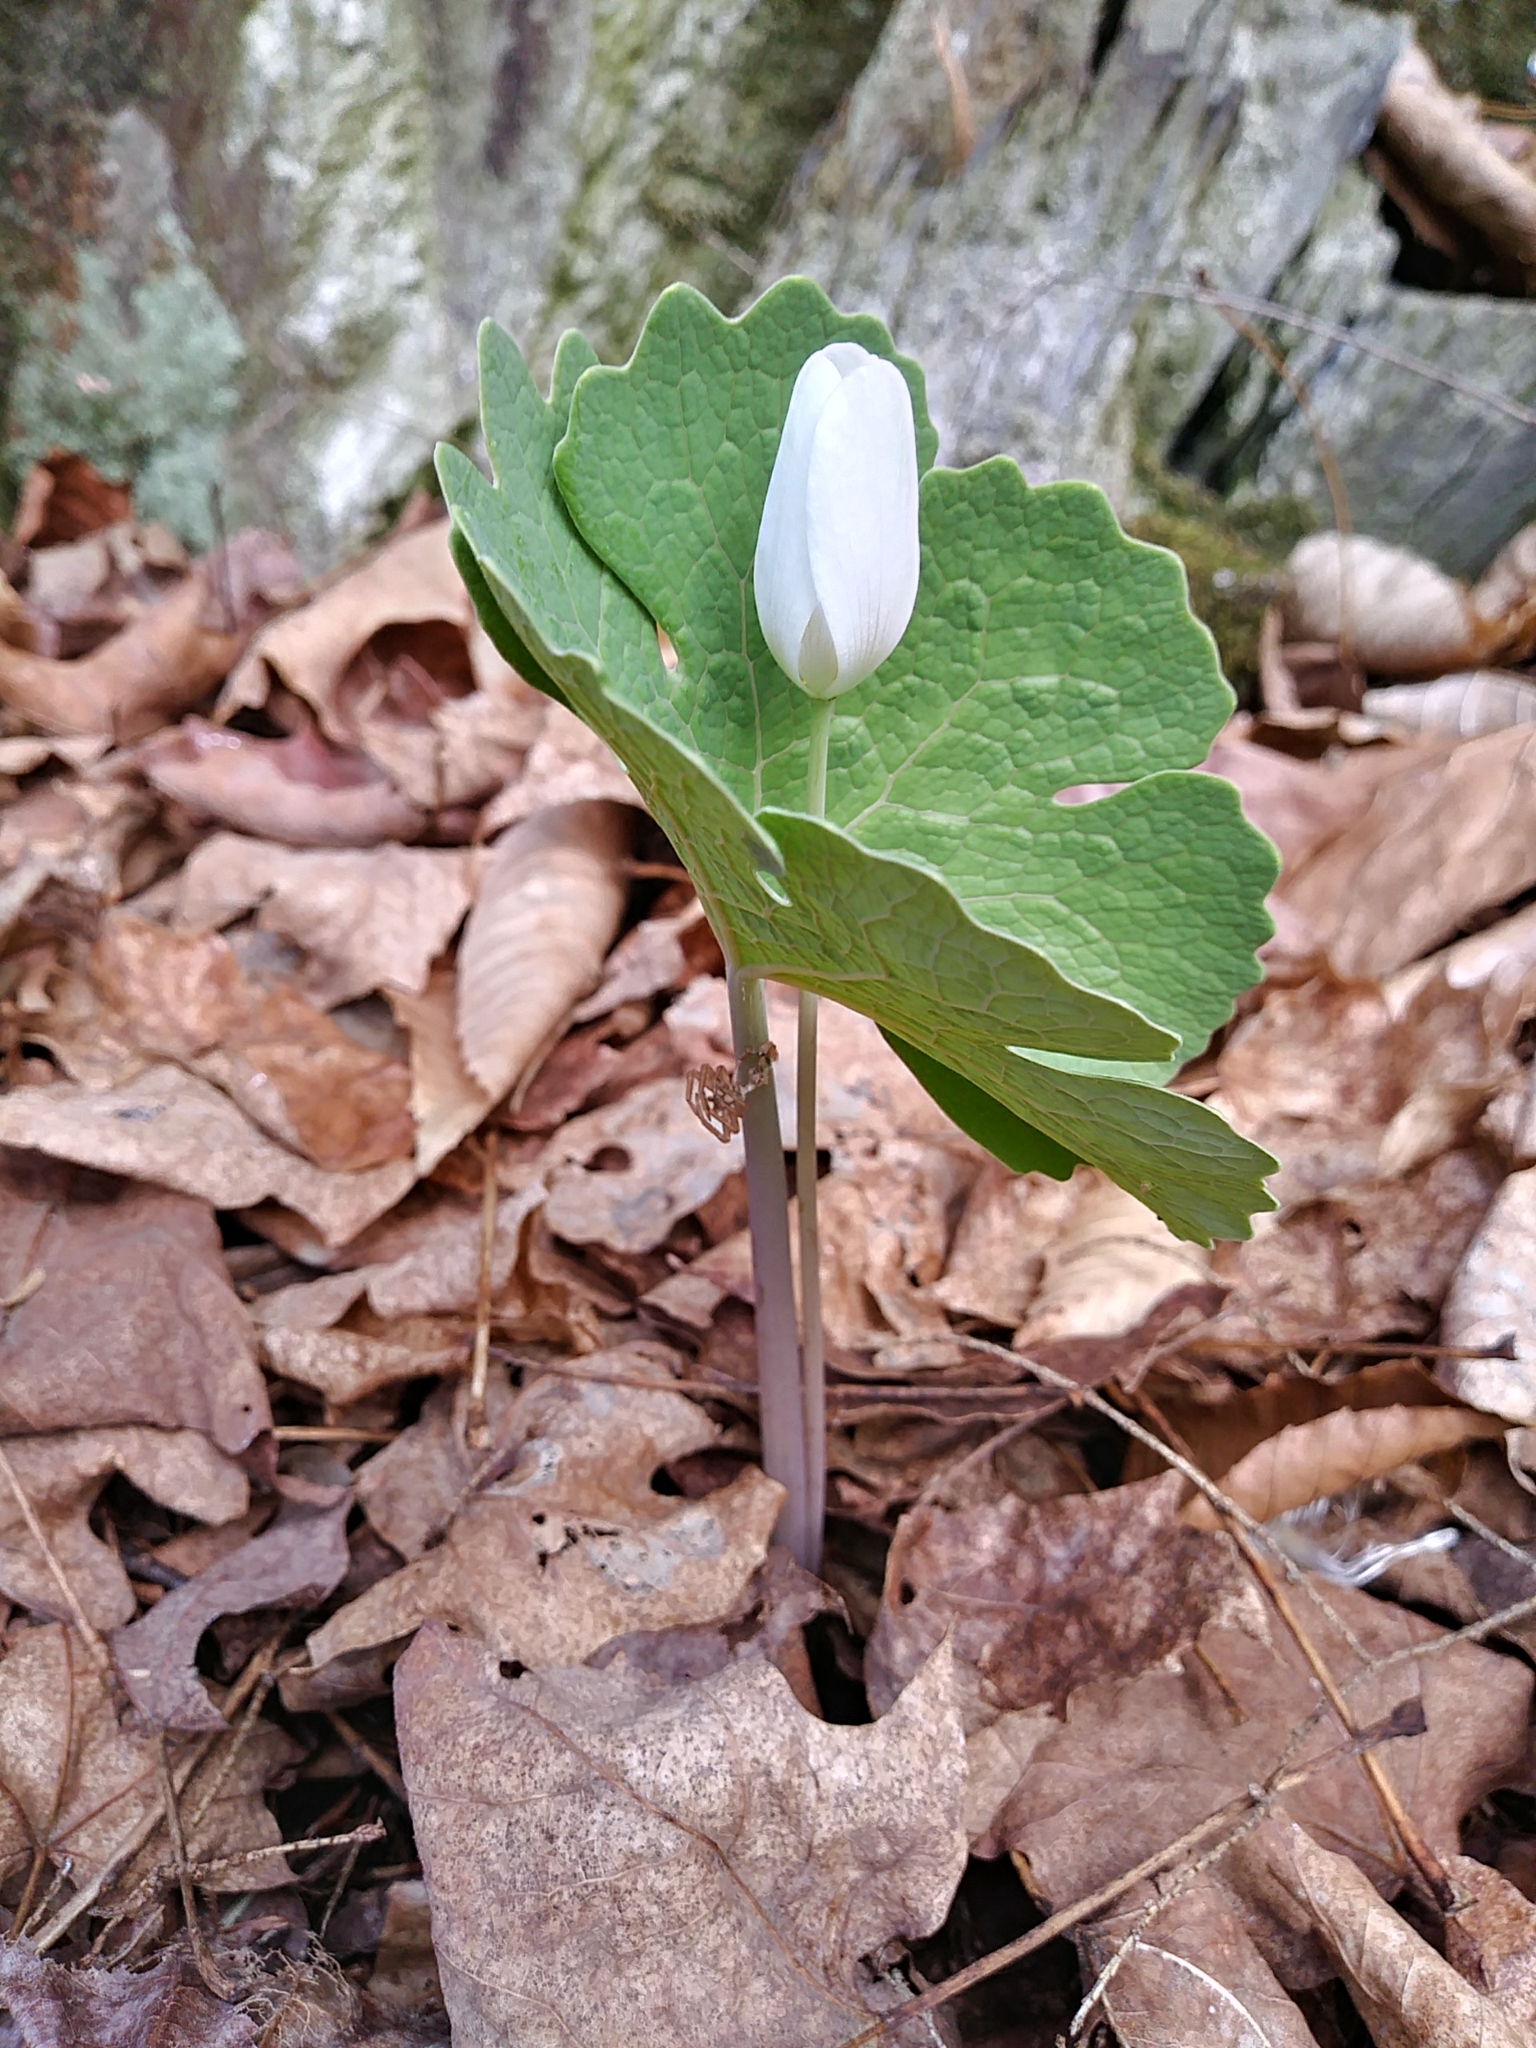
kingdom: Plantae
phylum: Tracheophyta
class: Magnoliopsida
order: Ranunculales
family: Papaveraceae
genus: Sanguinaria
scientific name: Sanguinaria canadensis
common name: Bloodroot
